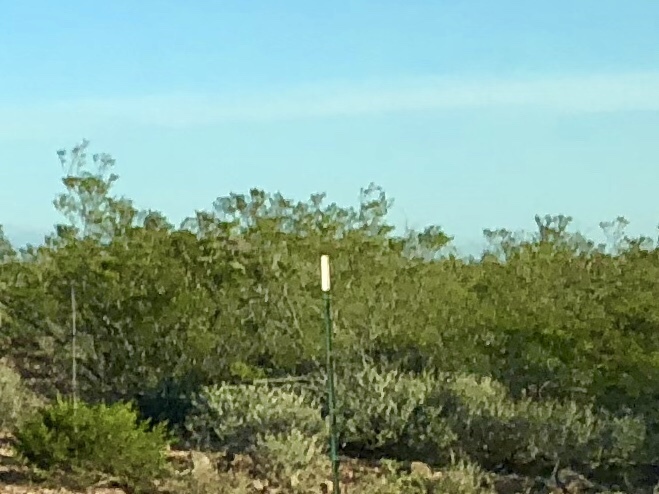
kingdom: Plantae
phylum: Tracheophyta
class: Magnoliopsida
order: Zygophyllales
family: Zygophyllaceae
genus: Larrea
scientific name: Larrea tridentata
